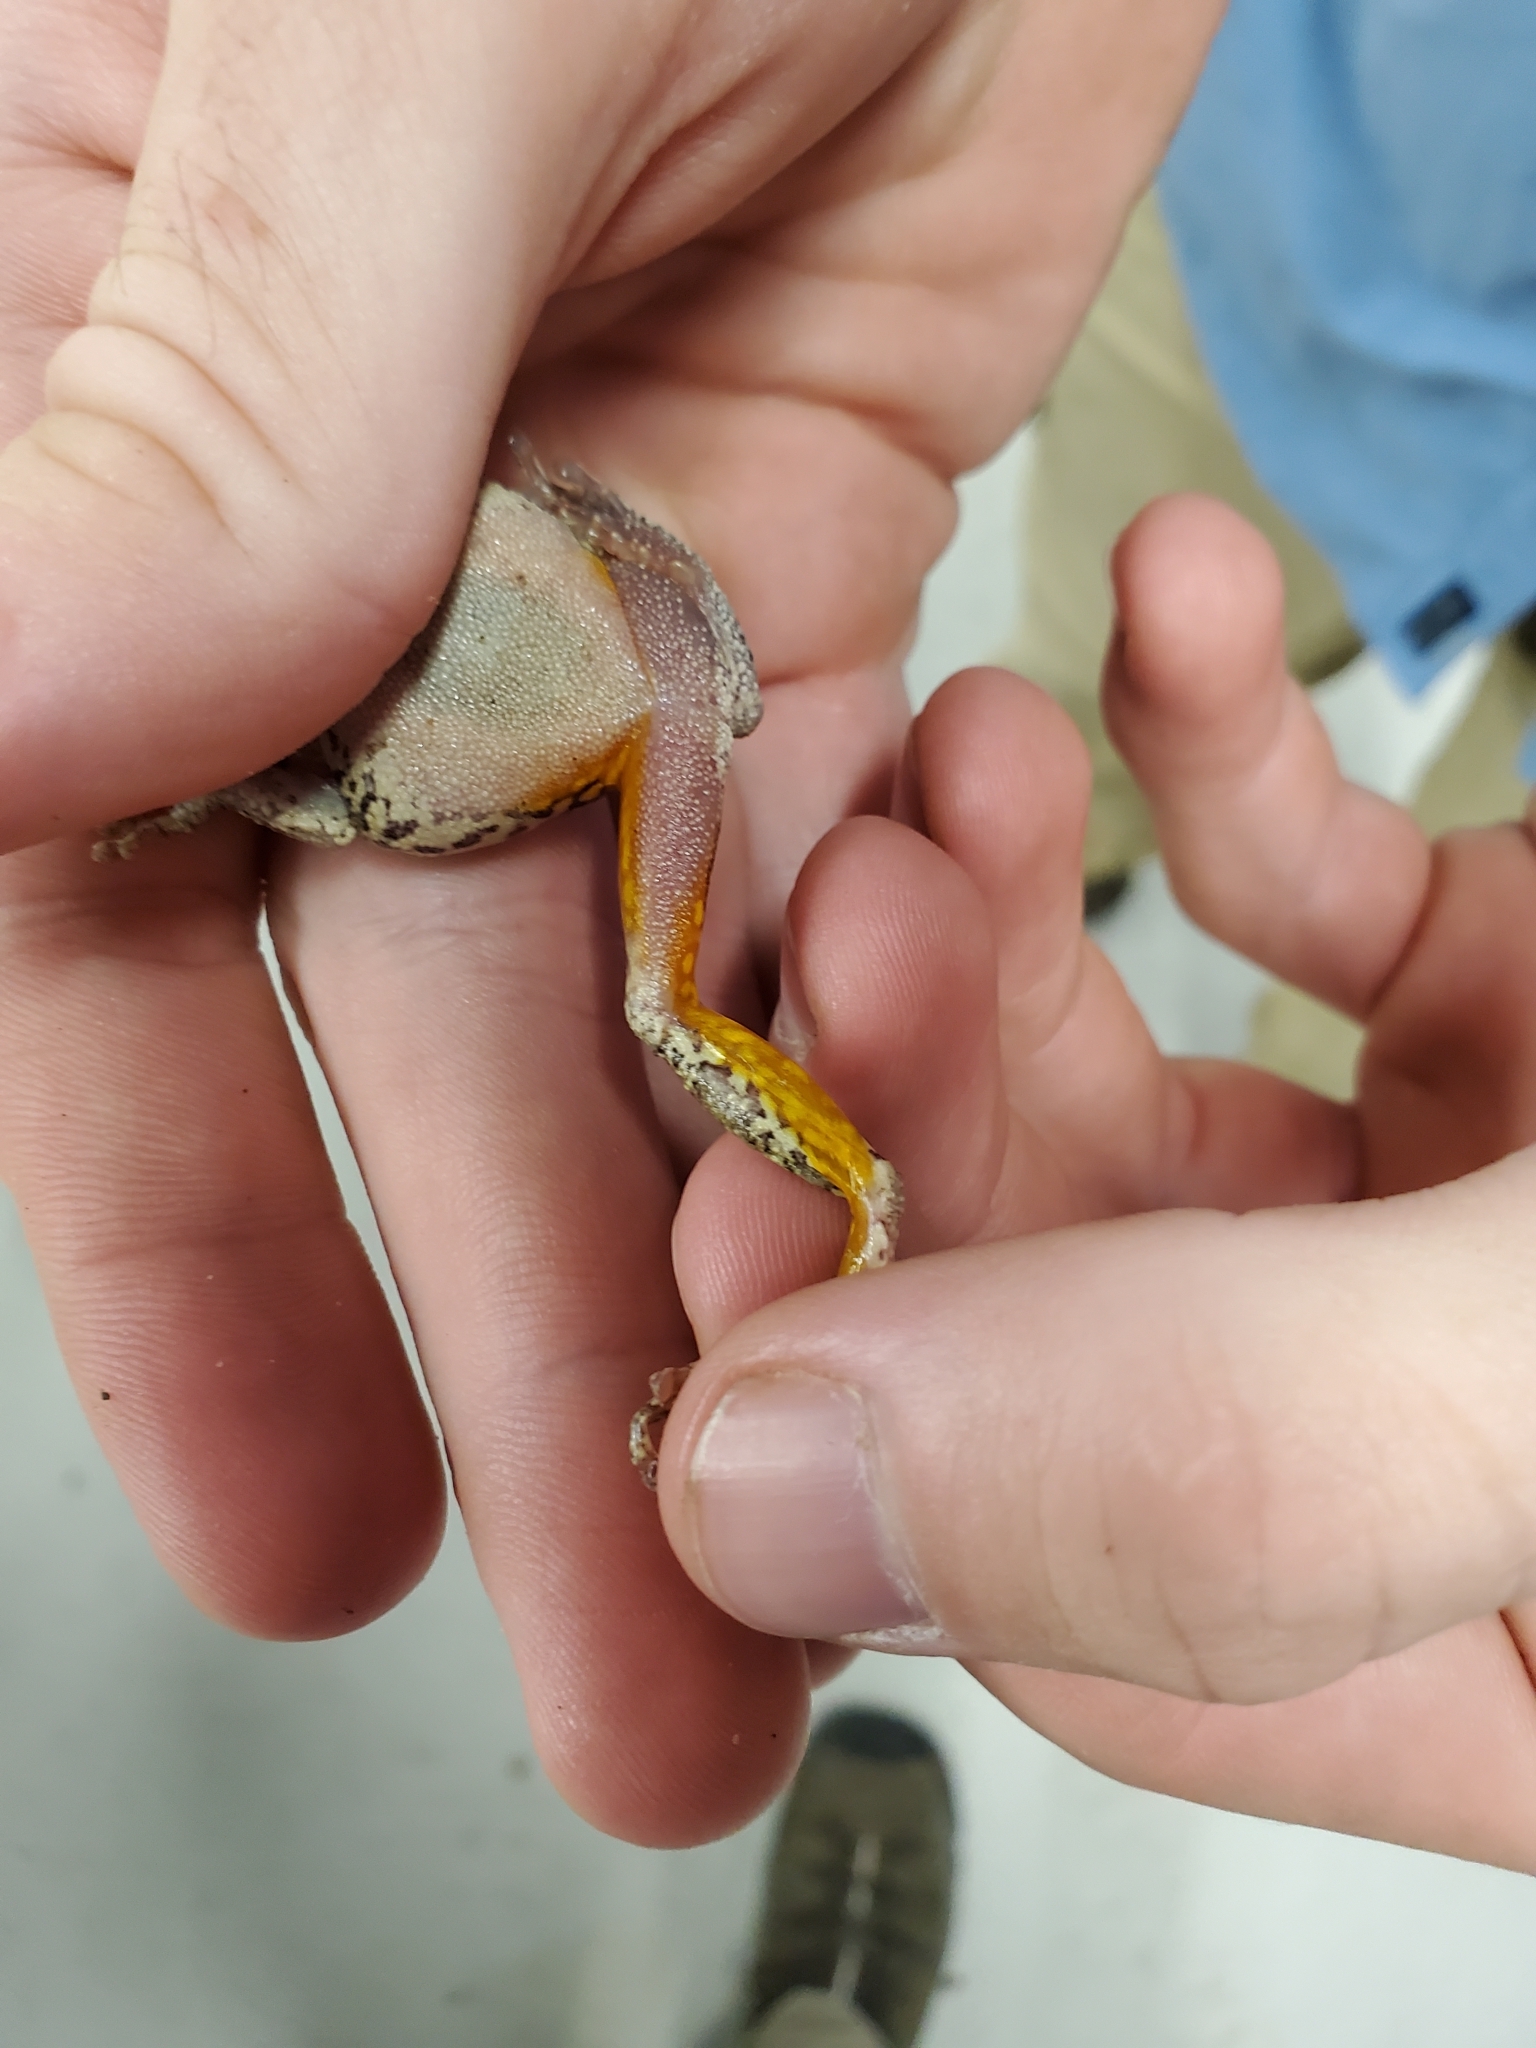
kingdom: Animalia
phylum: Chordata
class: Amphibia
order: Anura
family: Hylidae
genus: Dryophytes
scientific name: Dryophytes chrysoscelis
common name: Cope's gray treefrog
